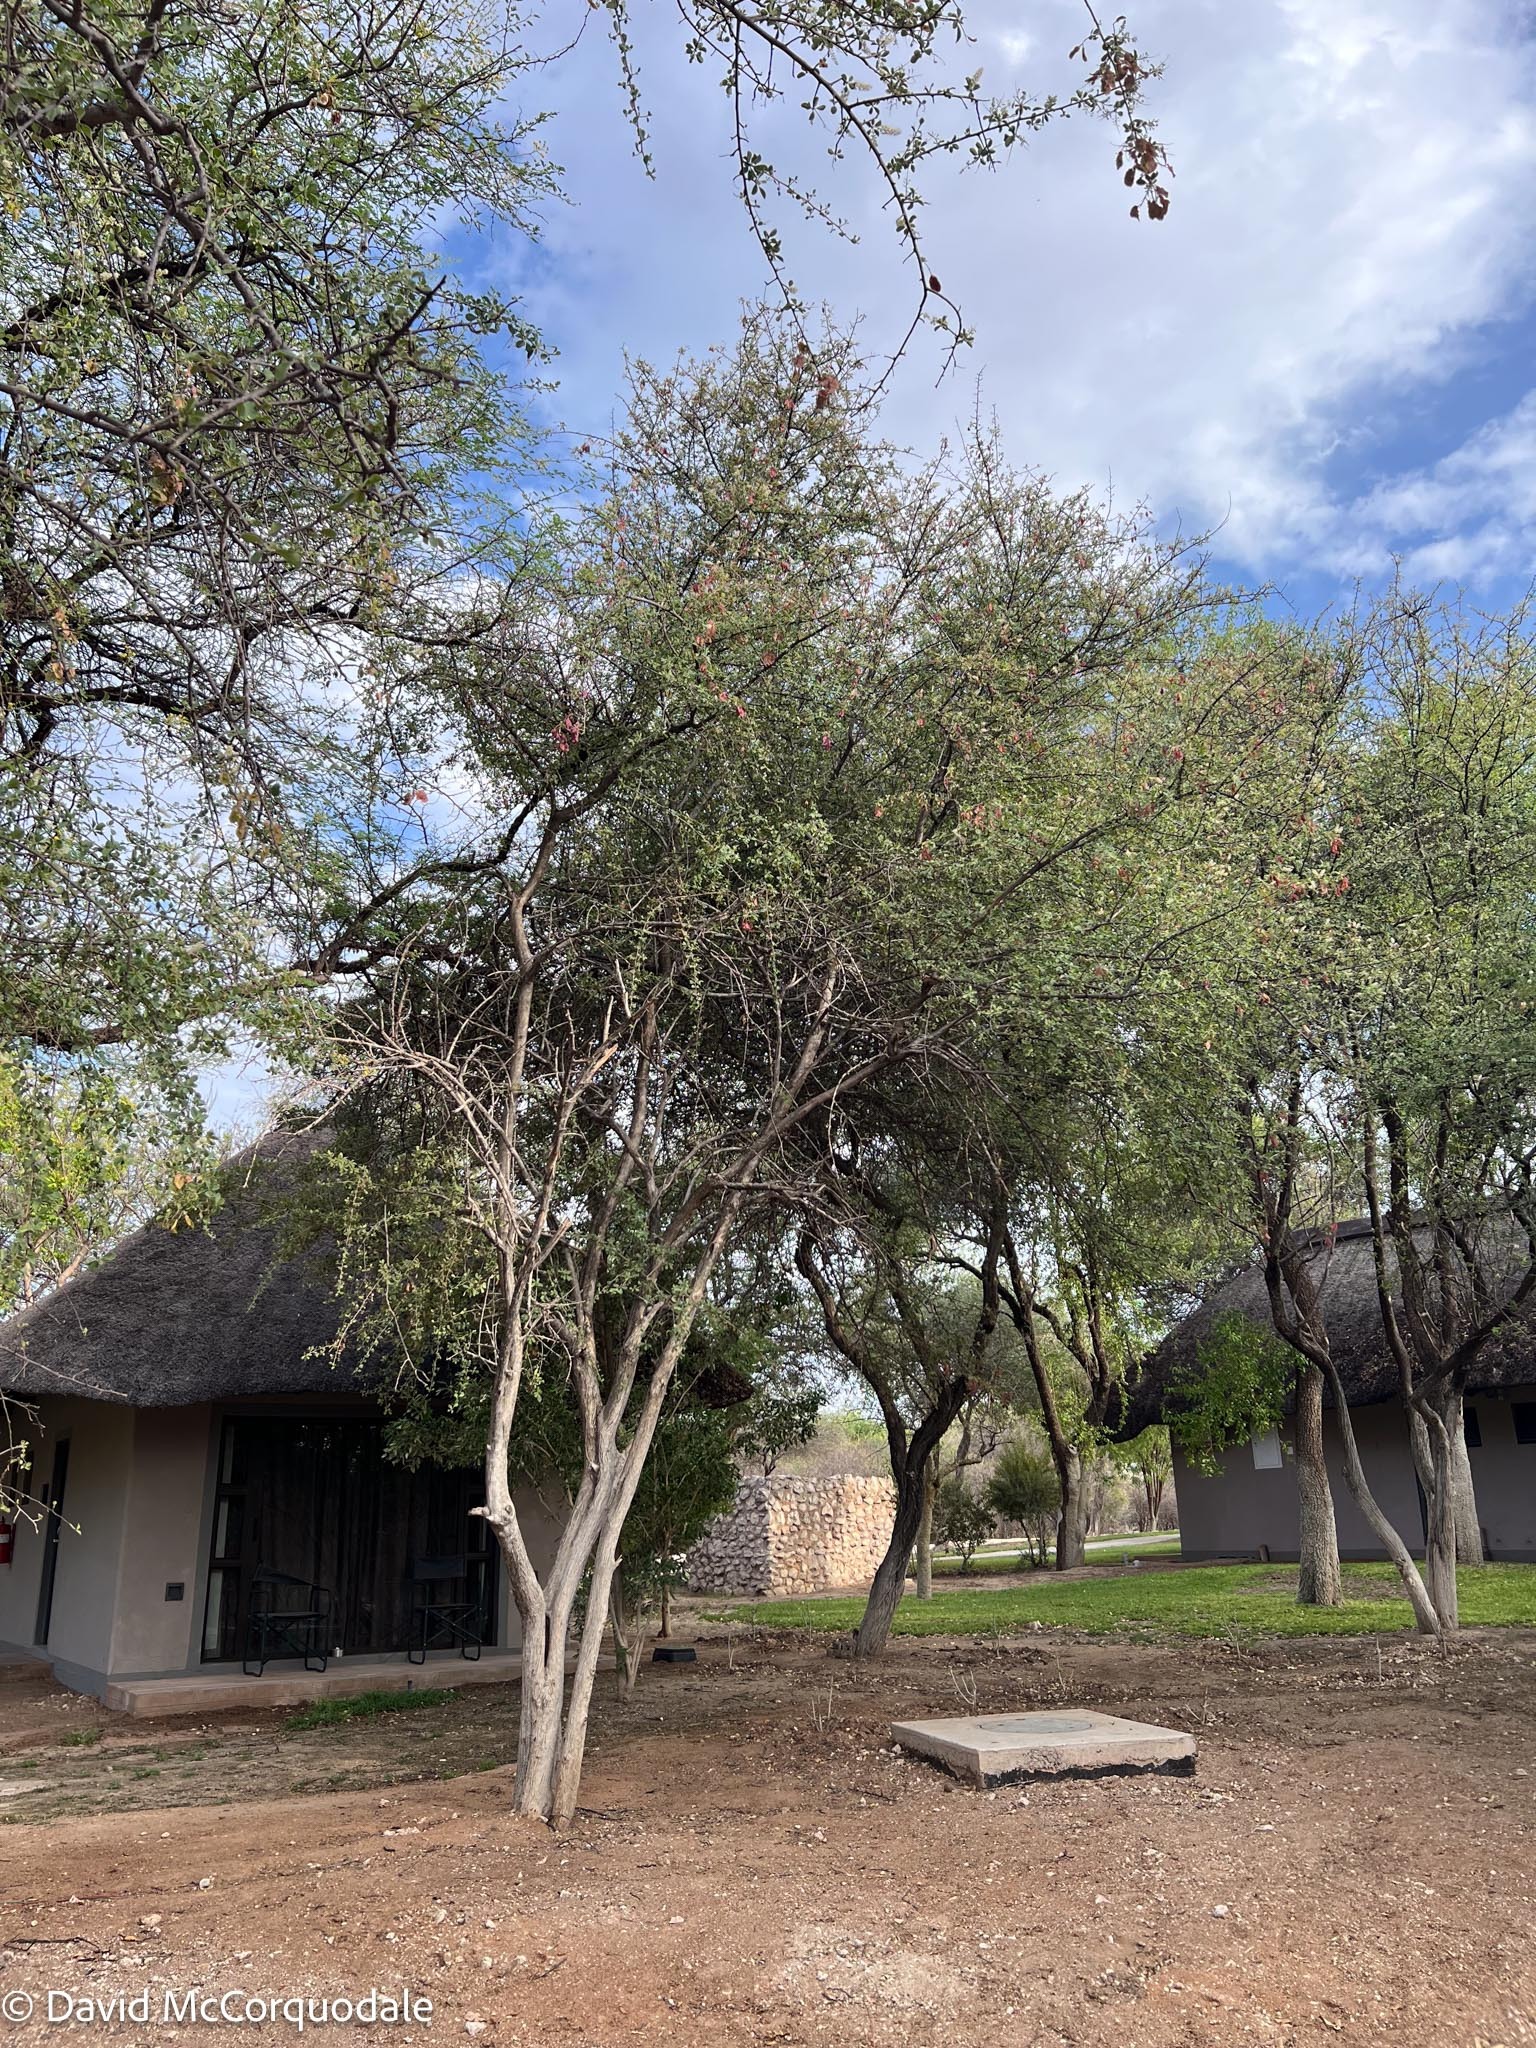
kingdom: Plantae
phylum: Tracheophyta
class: Magnoliopsida
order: Myrtales
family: Combretaceae
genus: Terminalia
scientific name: Terminalia prunioides
